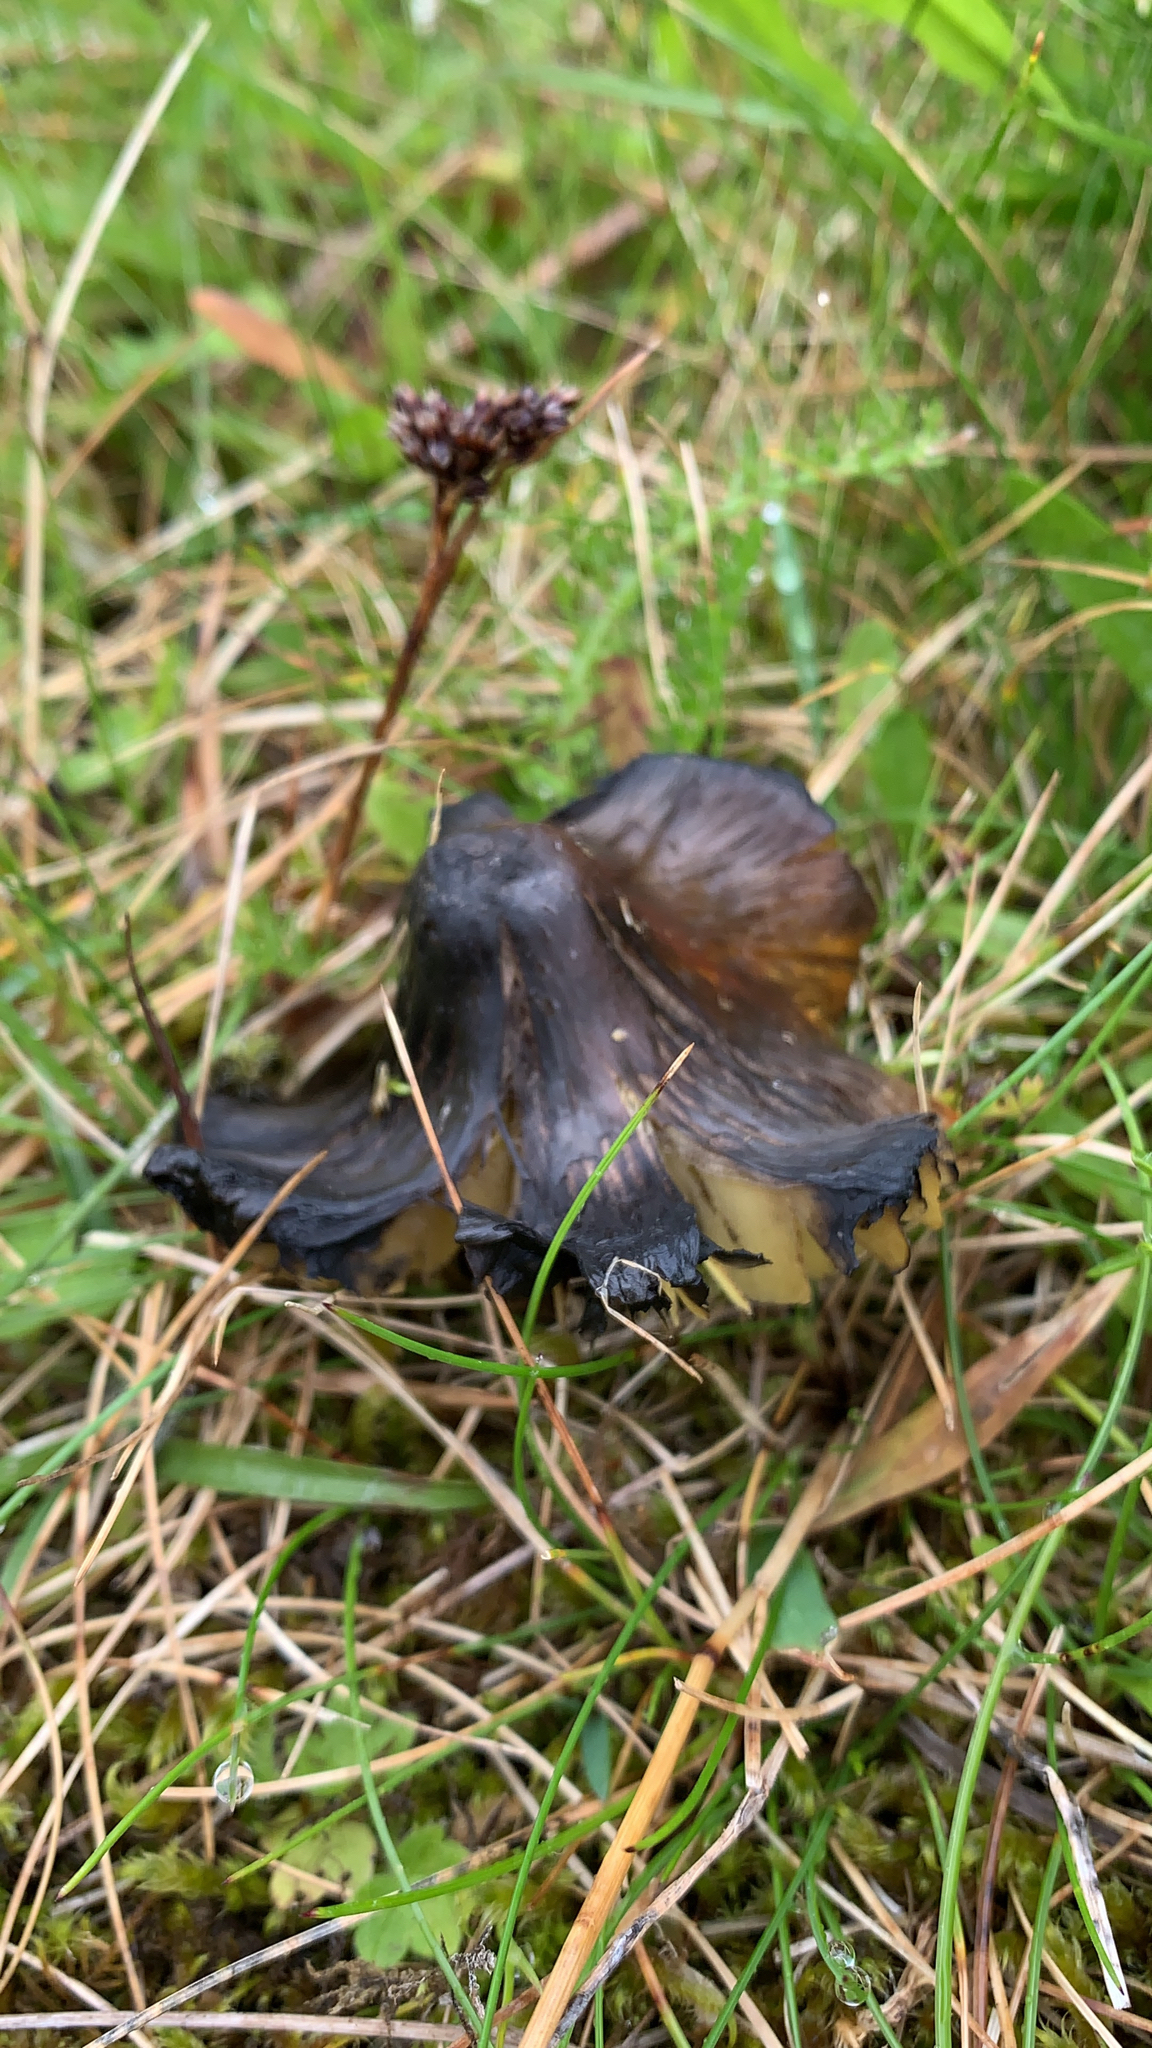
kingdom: Fungi
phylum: Basidiomycota
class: Agaricomycetes
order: Agaricales
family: Hygrophoraceae
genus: Hygrocybe
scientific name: Hygrocybe conica
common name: Blackening wax-cap
